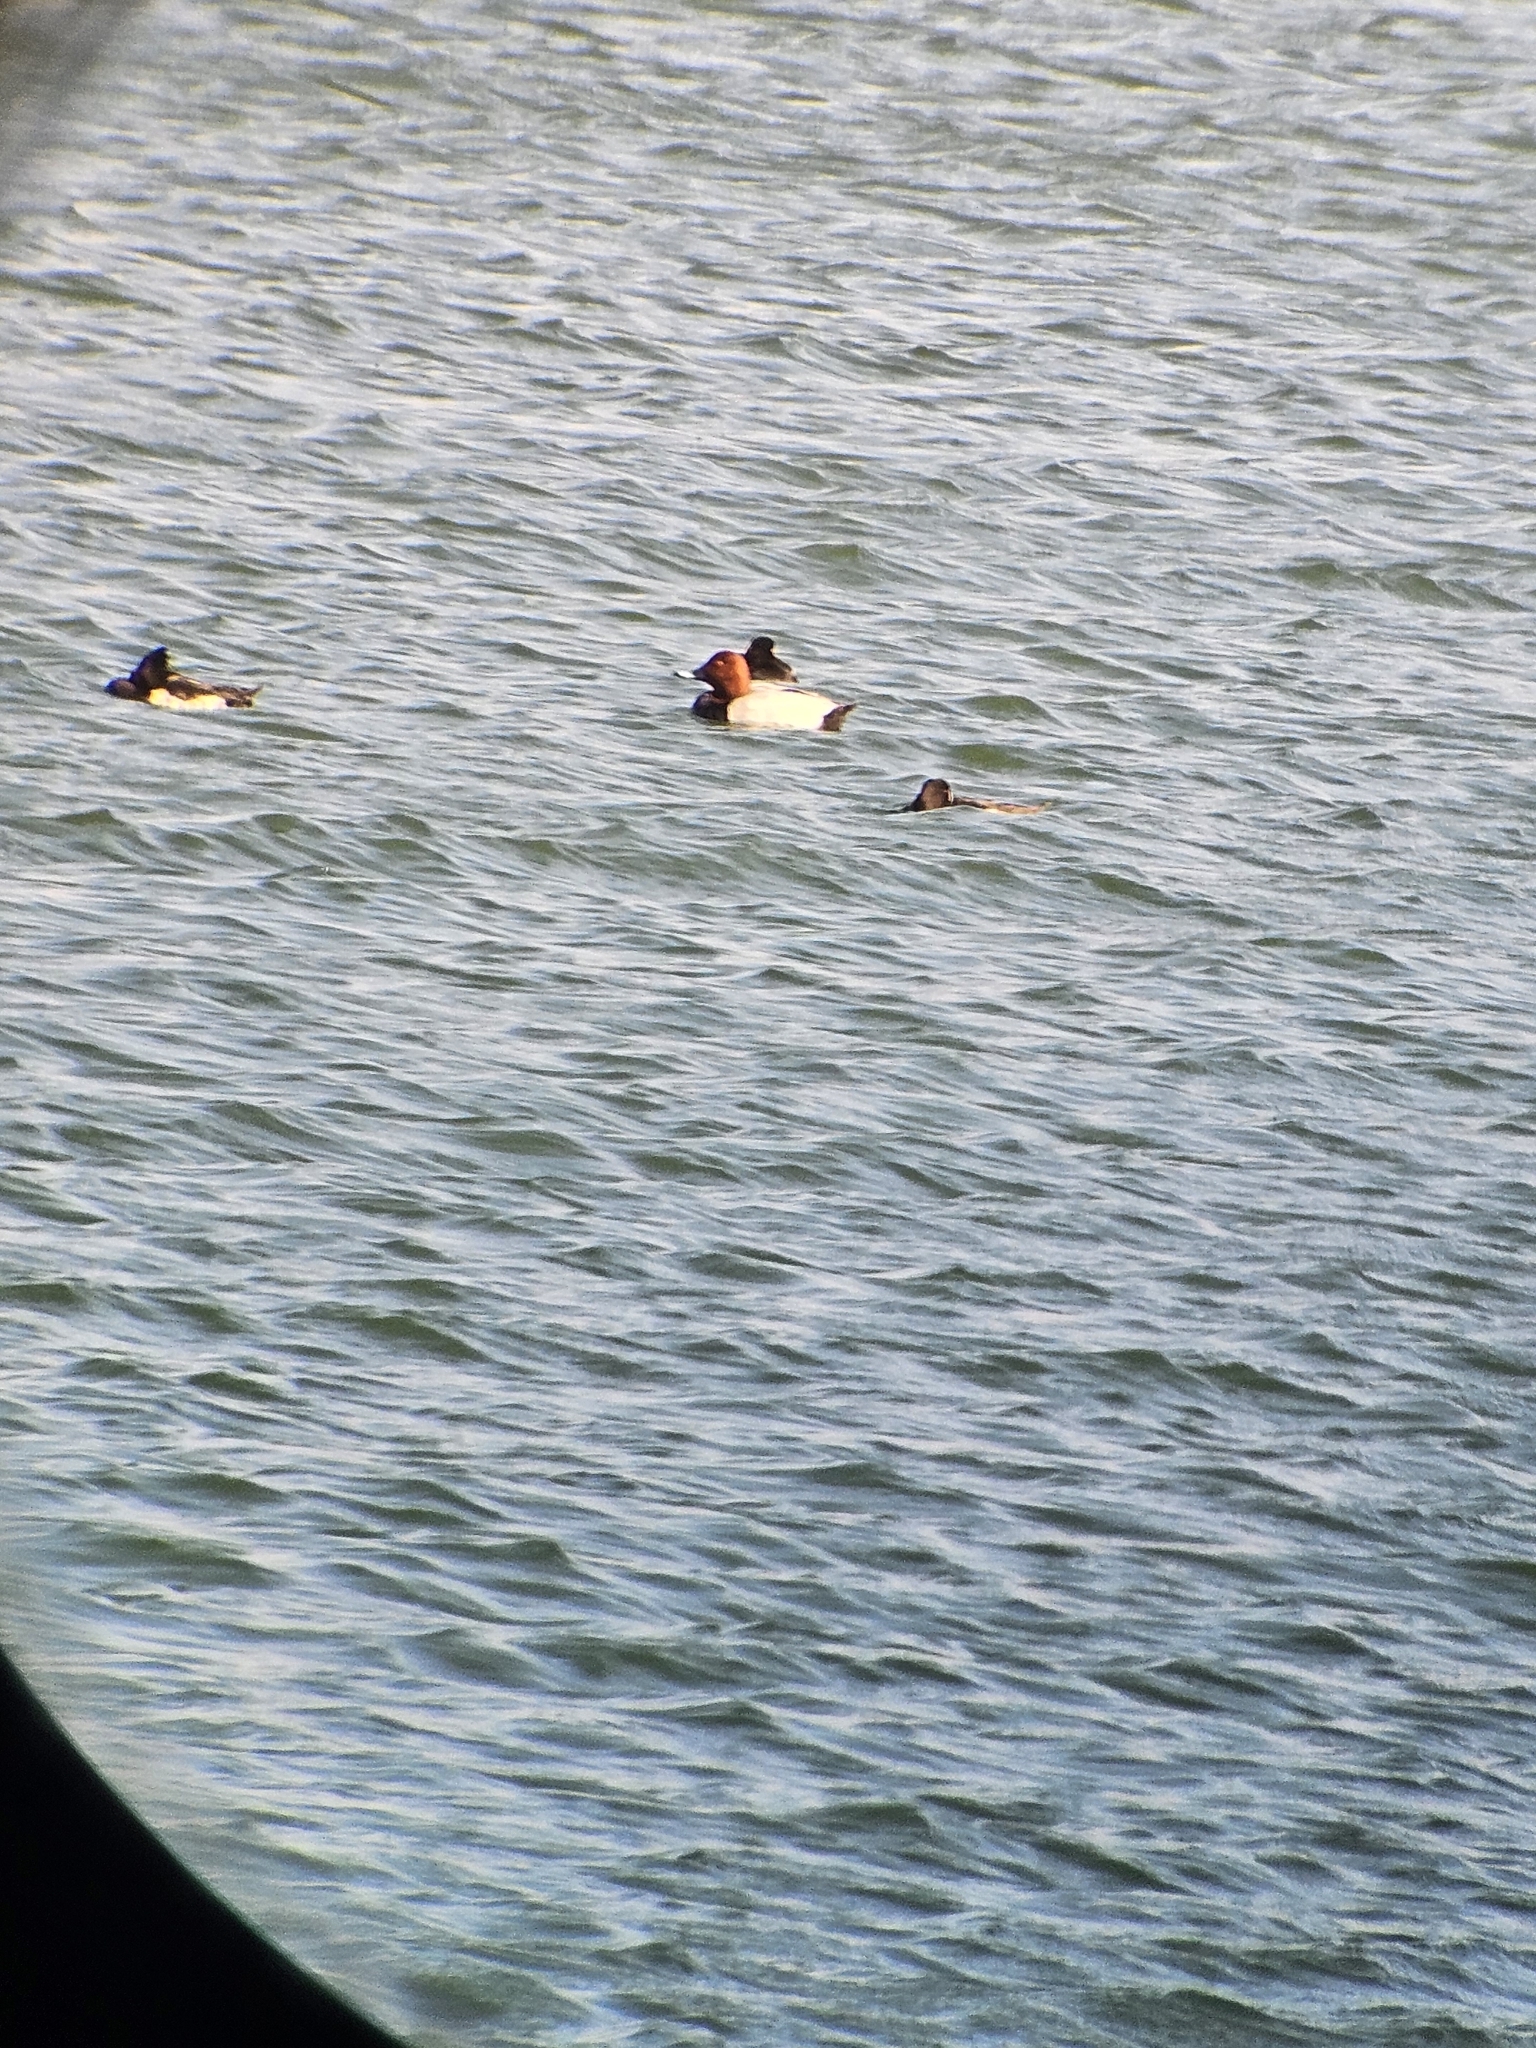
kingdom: Animalia
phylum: Chordata
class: Aves
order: Anseriformes
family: Anatidae
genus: Aythya
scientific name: Aythya ferina
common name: Common pochard
